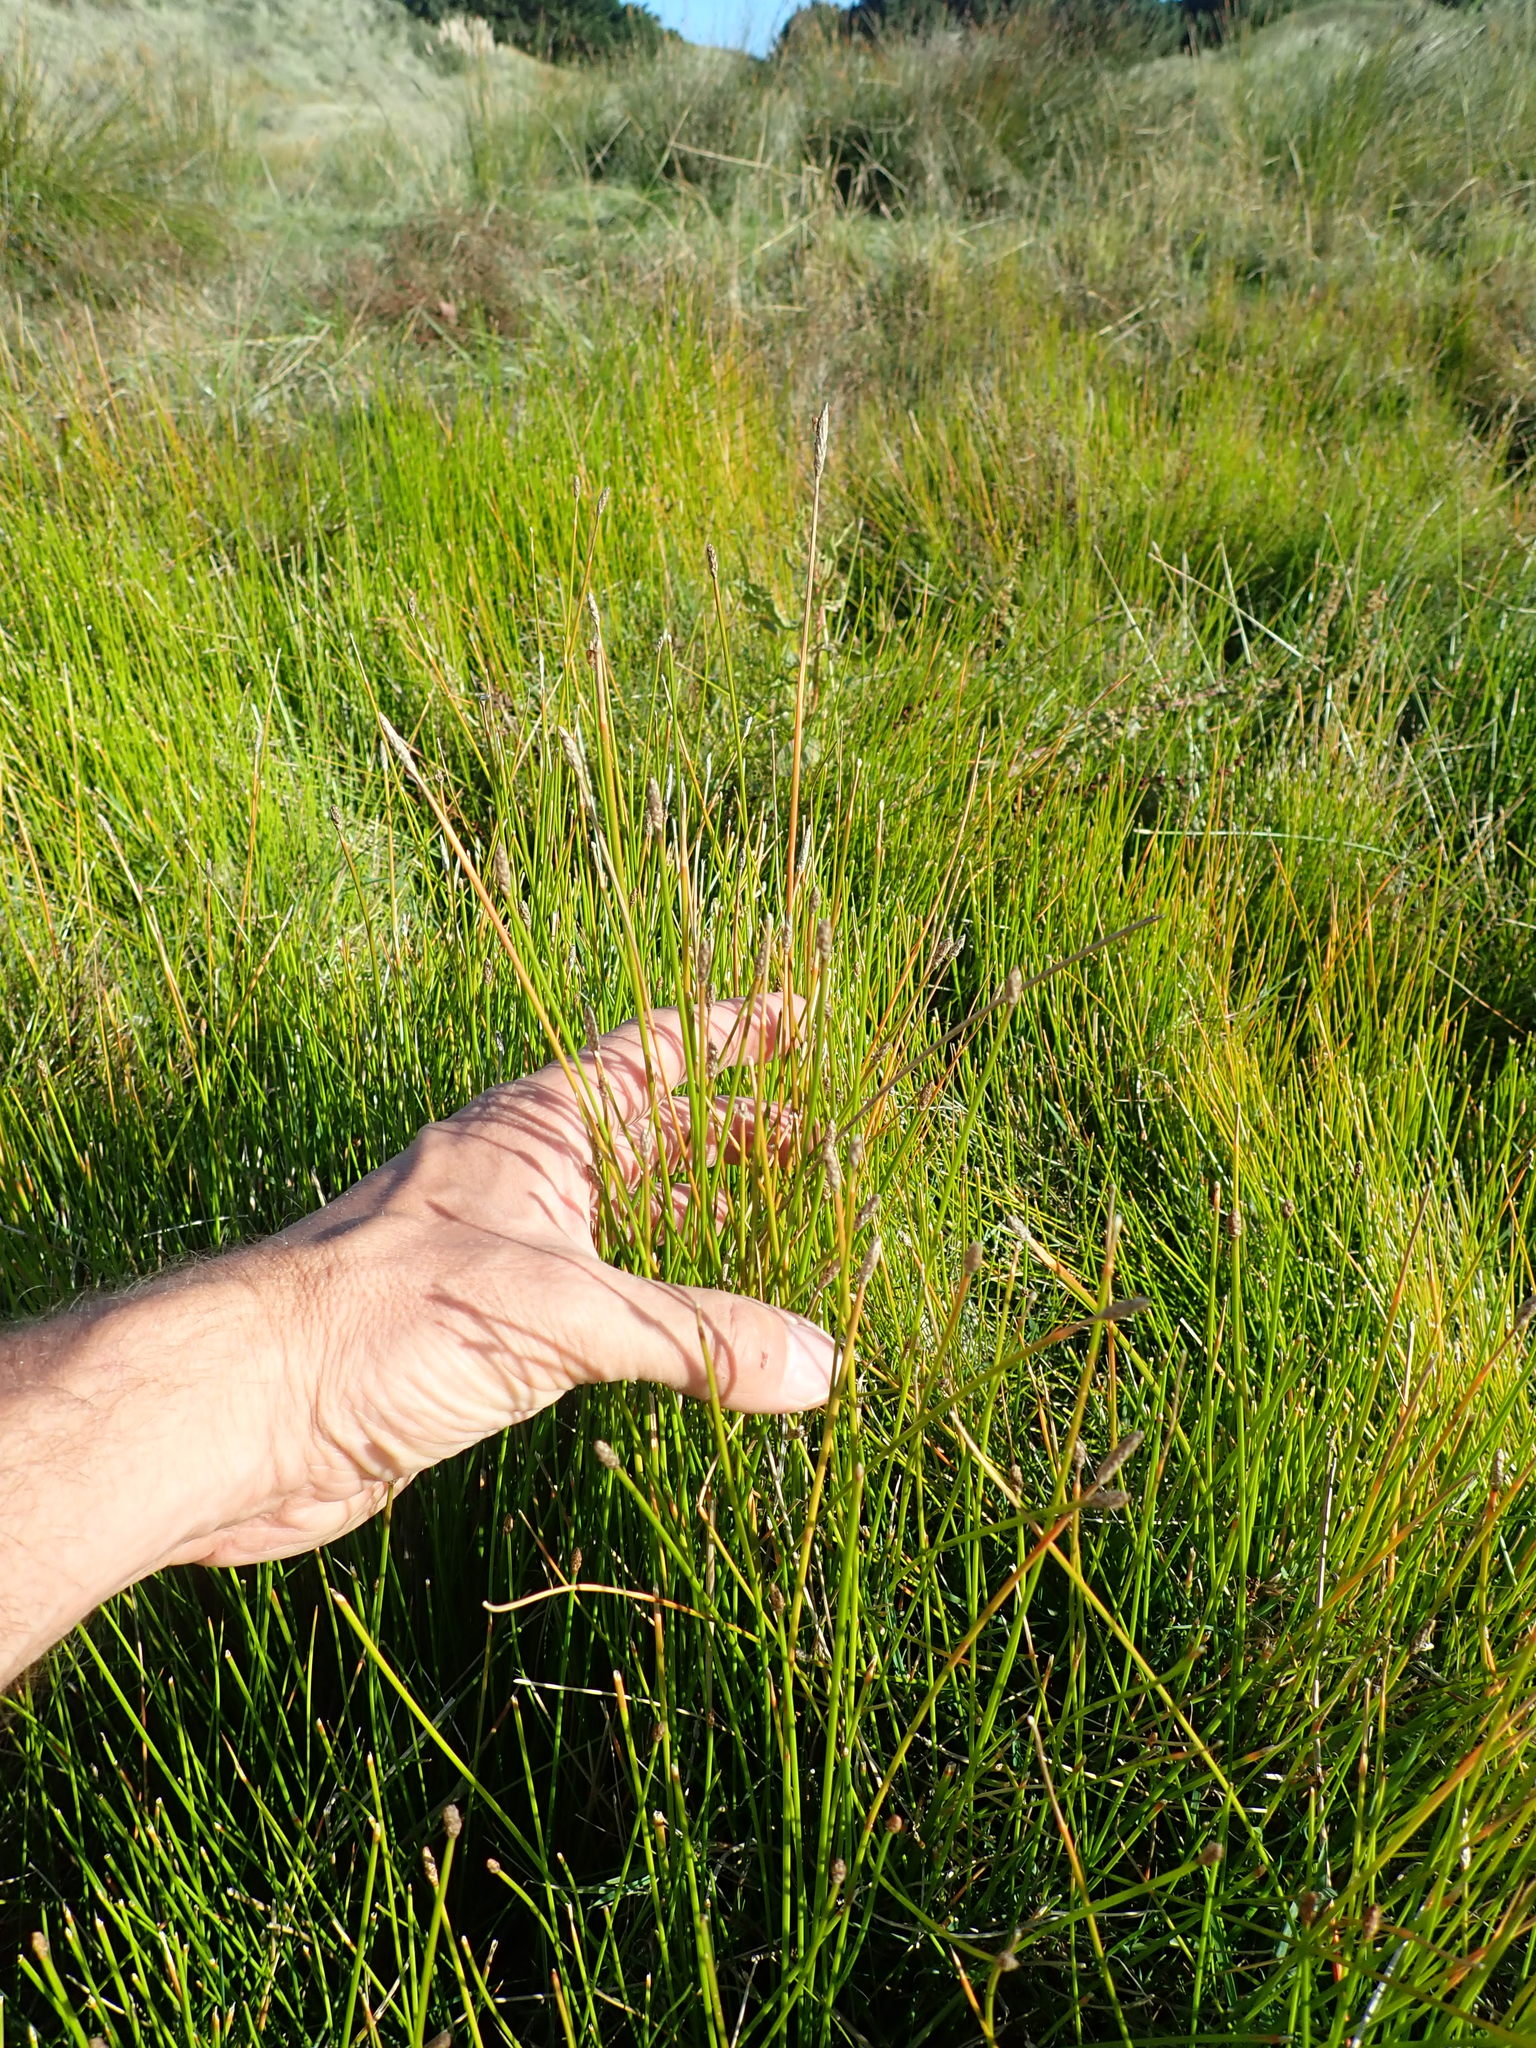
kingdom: Plantae
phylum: Tracheophyta
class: Liliopsida
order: Poales
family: Cyperaceae
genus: Eleocharis
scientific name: Eleocharis acuta
